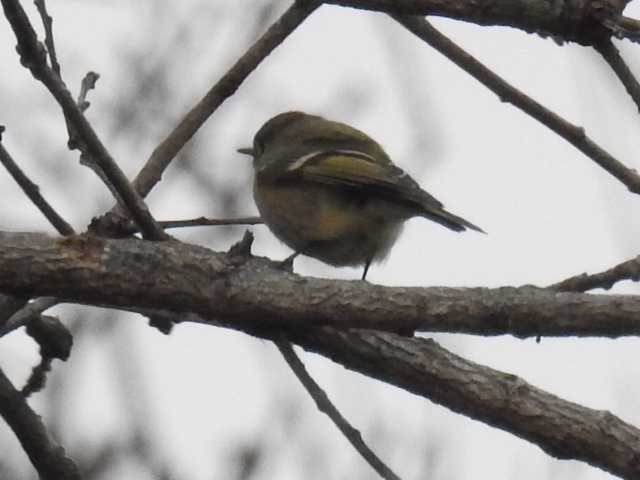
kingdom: Animalia
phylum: Chordata
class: Aves
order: Passeriformes
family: Regulidae
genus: Regulus
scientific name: Regulus calendula
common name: Ruby-crowned kinglet
